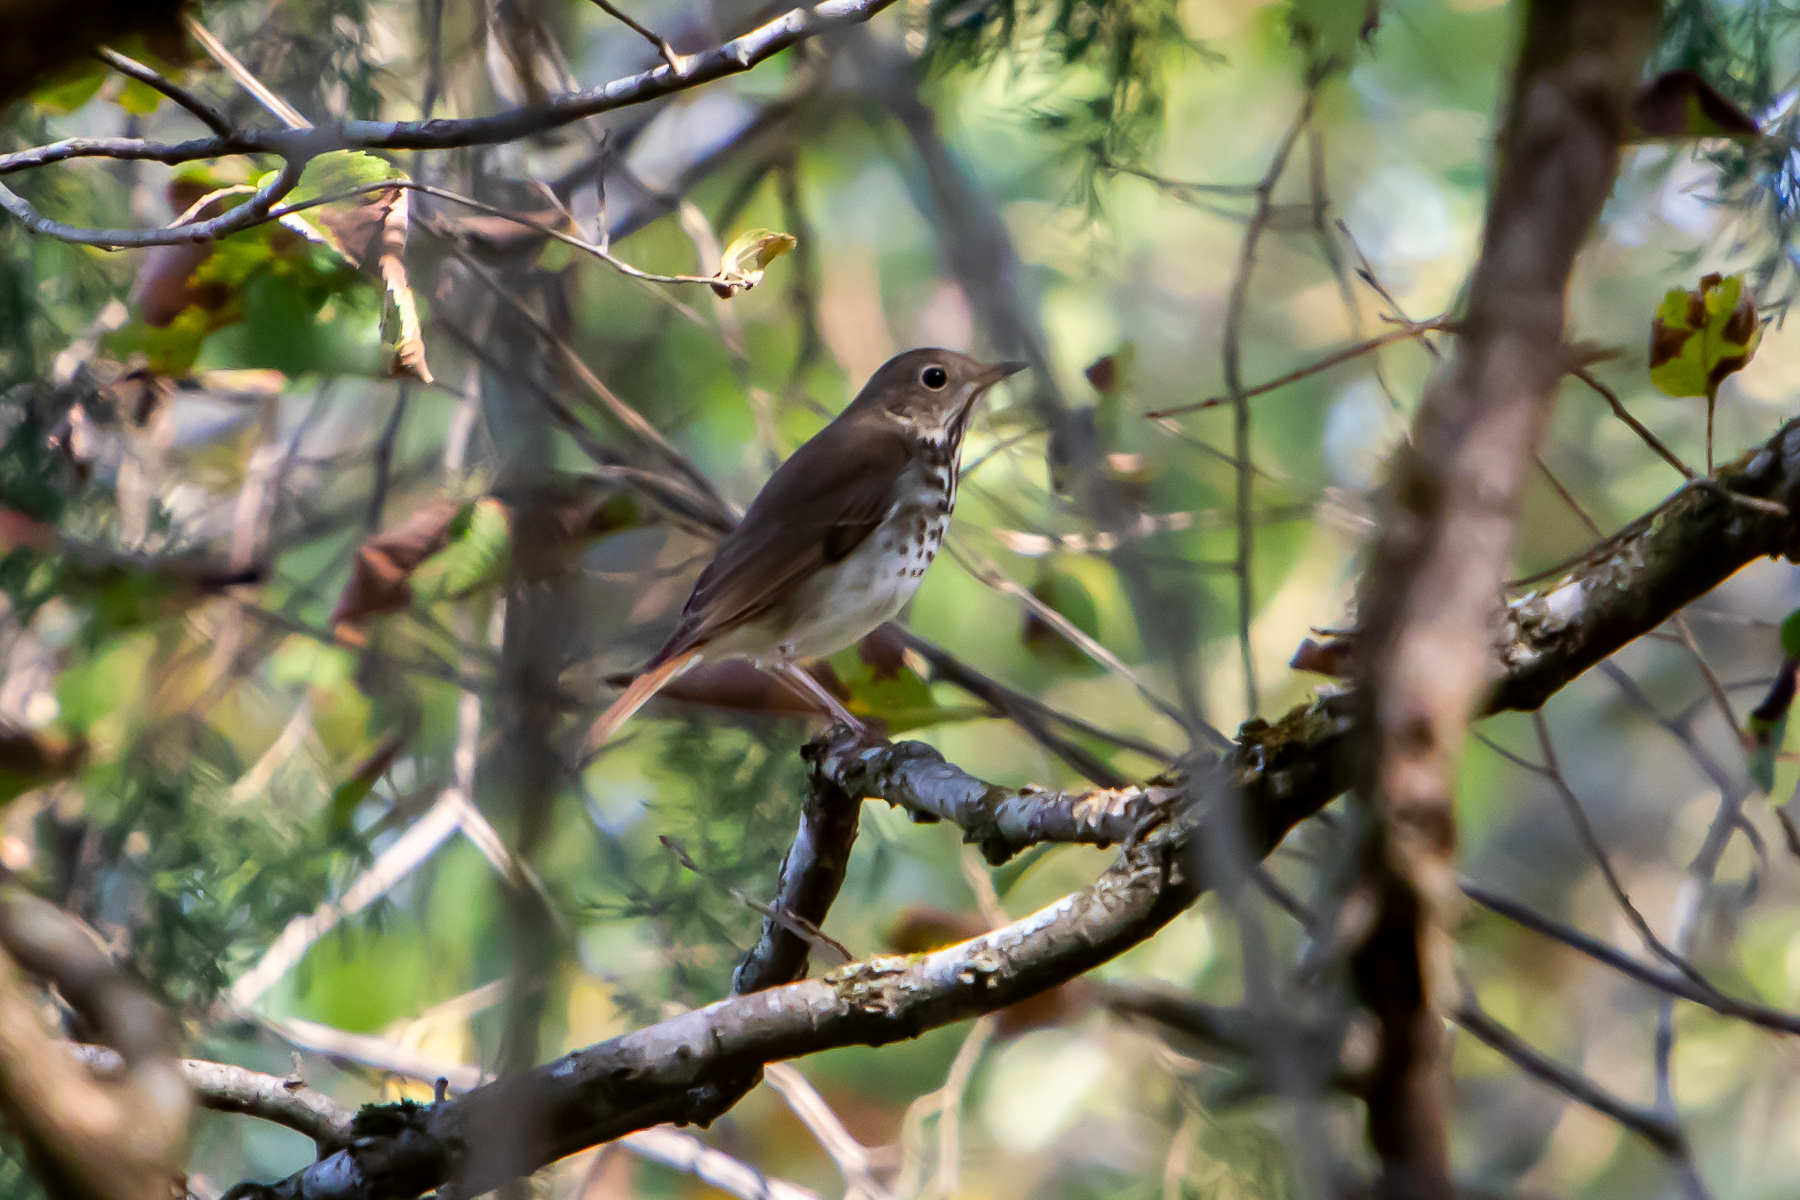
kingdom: Animalia
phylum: Chordata
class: Aves
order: Passeriformes
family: Turdidae
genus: Catharus
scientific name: Catharus guttatus
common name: Hermit thrush
